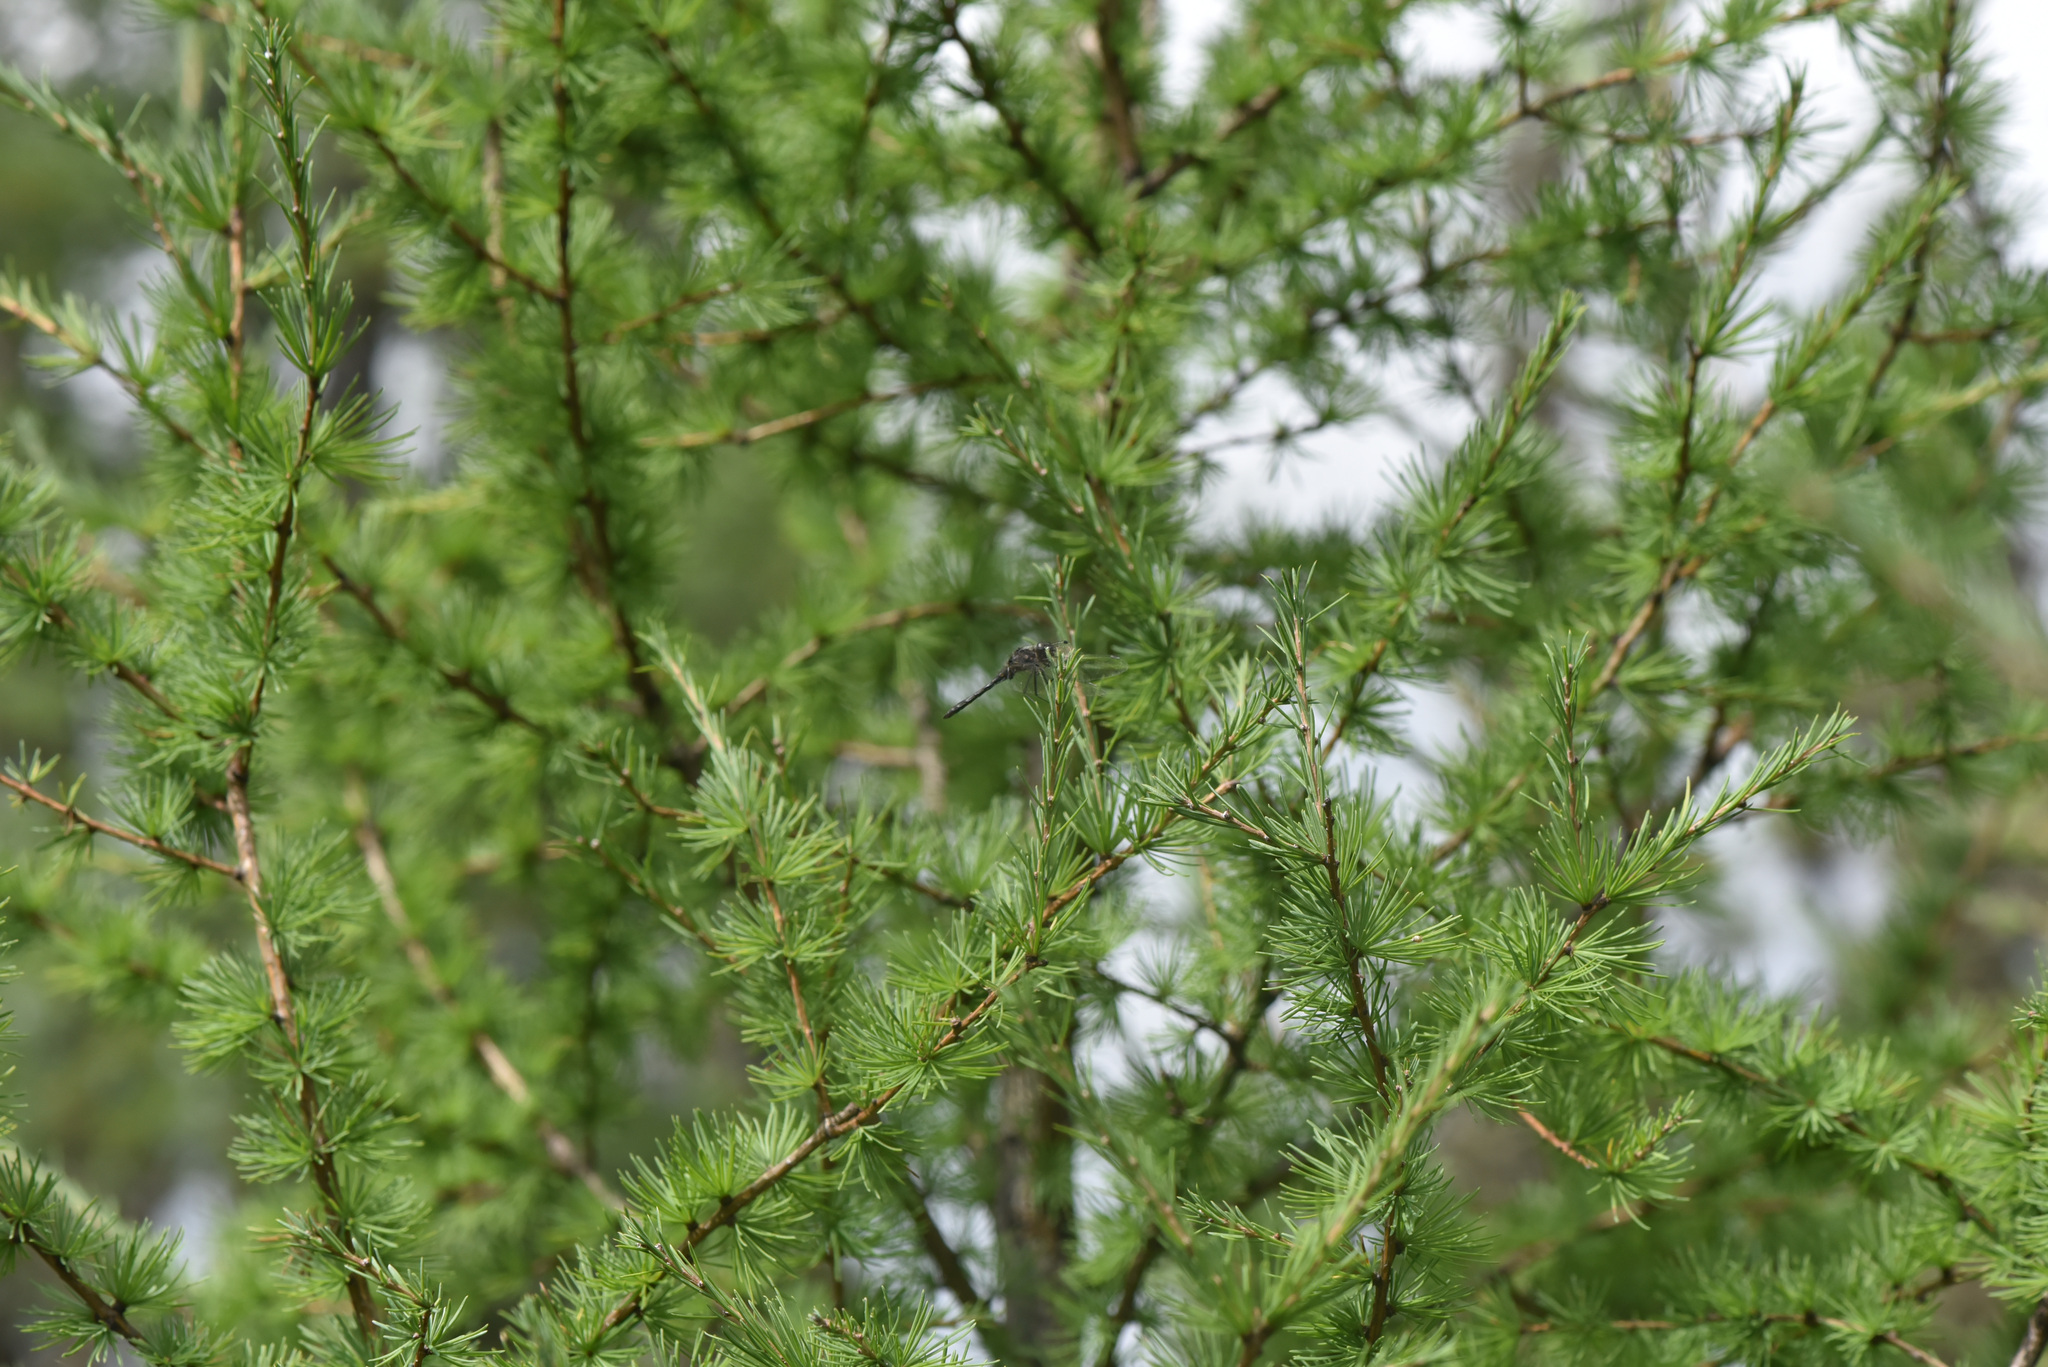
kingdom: Plantae
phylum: Tracheophyta
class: Pinopsida
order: Pinales
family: Pinaceae
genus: Larix
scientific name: Larix laricina
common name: American larch
